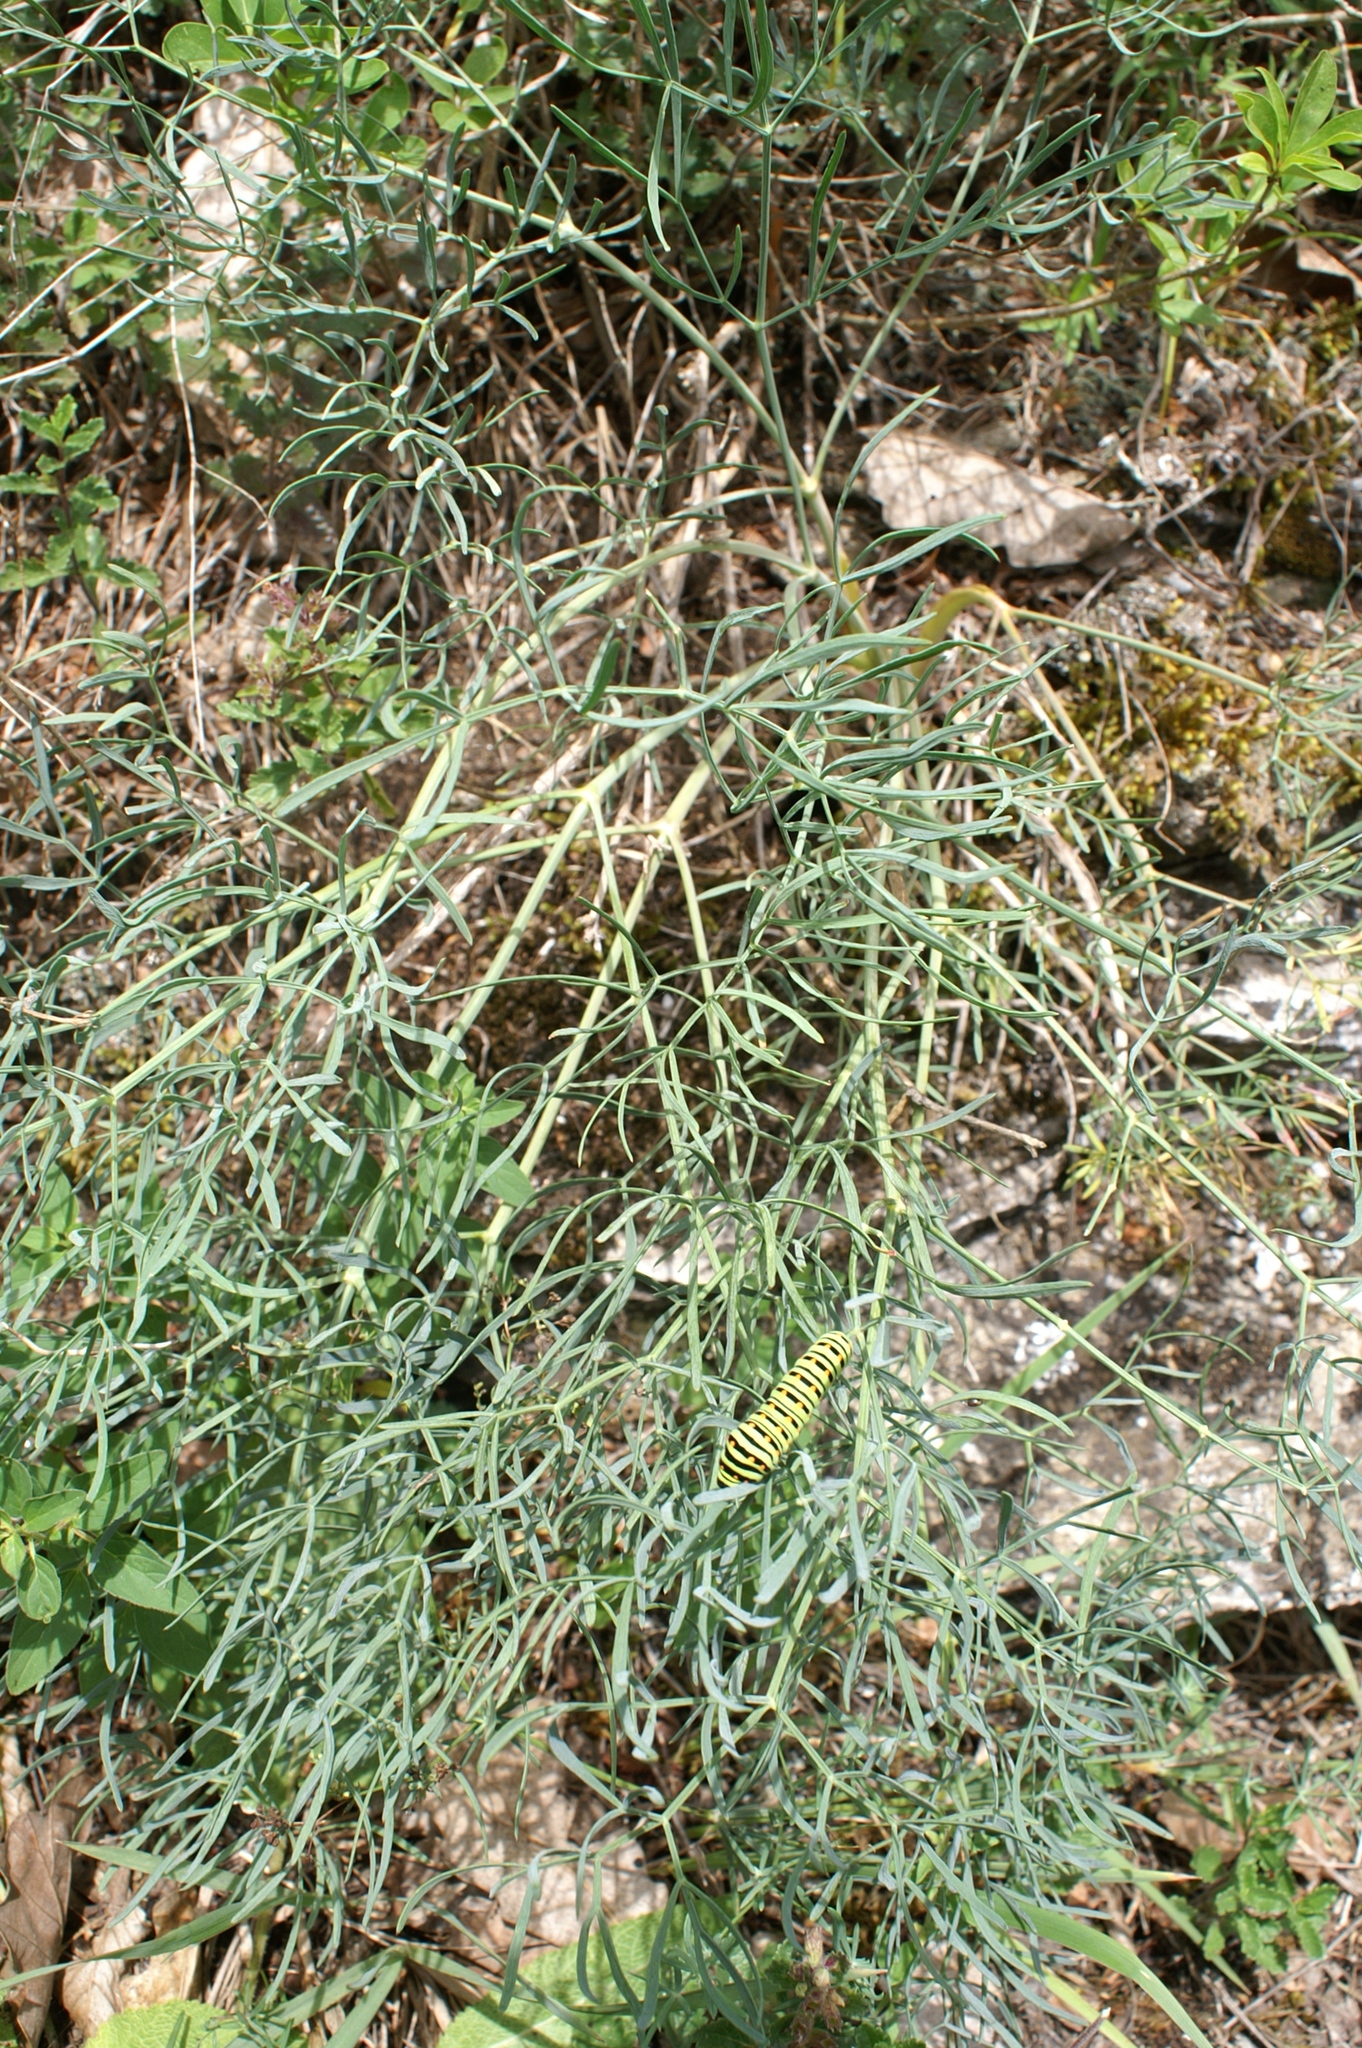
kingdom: Plantae
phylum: Tracheophyta
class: Magnoliopsida
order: Apiales
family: Apiaceae
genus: Seseli
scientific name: Seseli osseum
